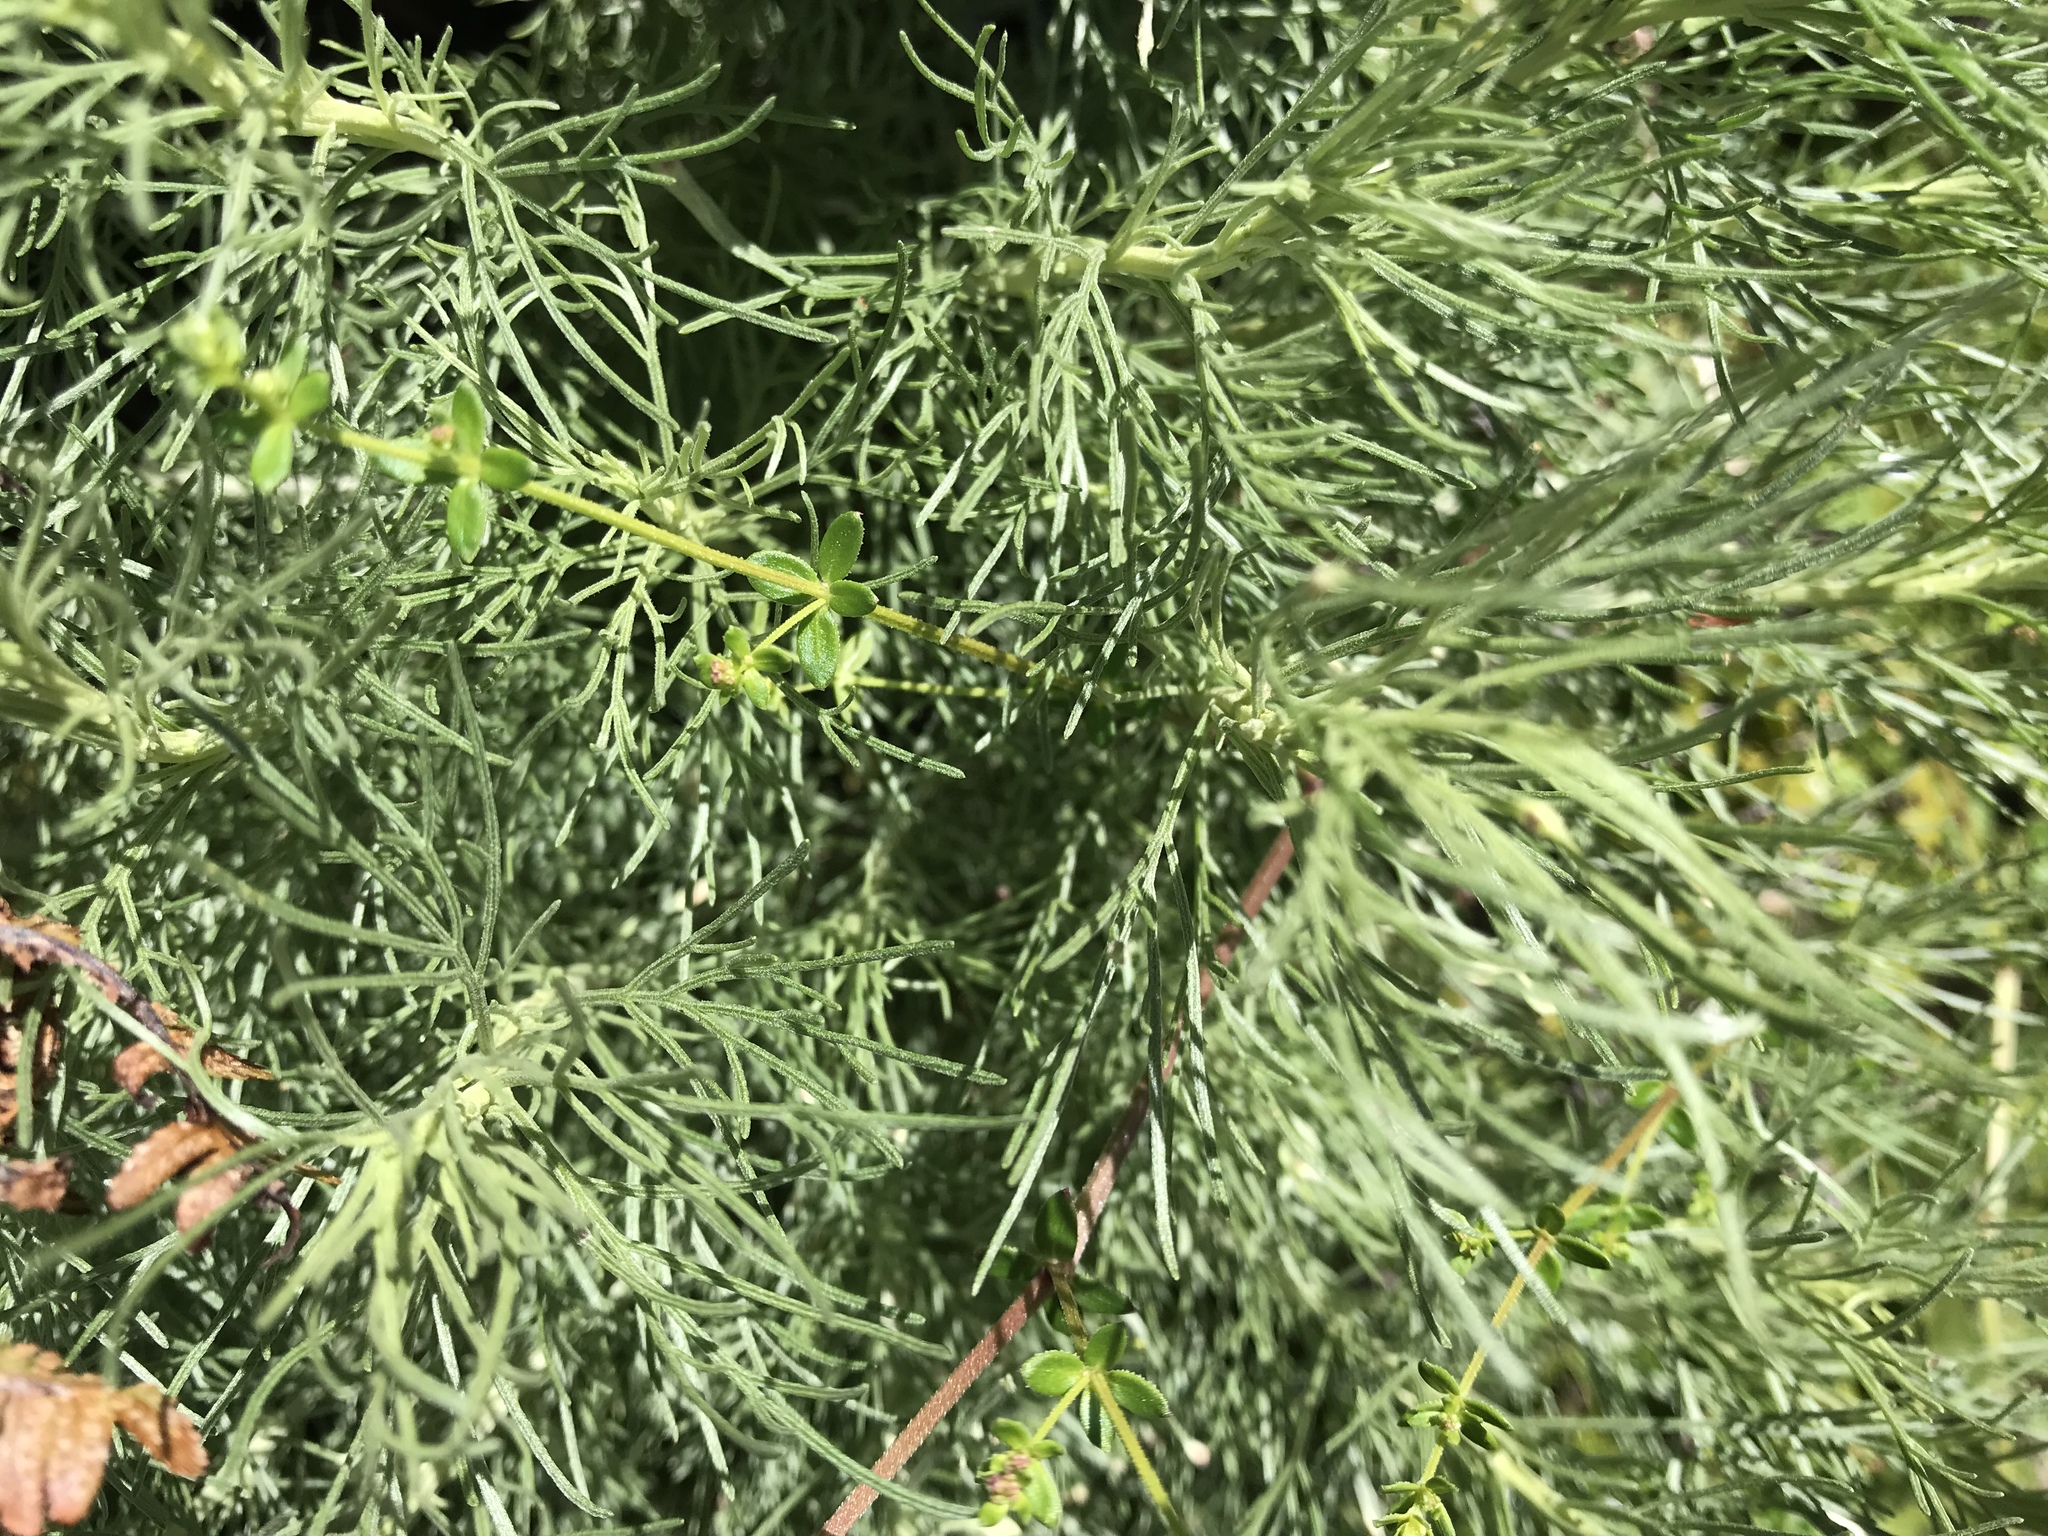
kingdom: Plantae
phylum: Tracheophyta
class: Magnoliopsida
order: Asterales
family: Asteraceae
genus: Artemisia
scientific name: Artemisia californica
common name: California sagebrush
